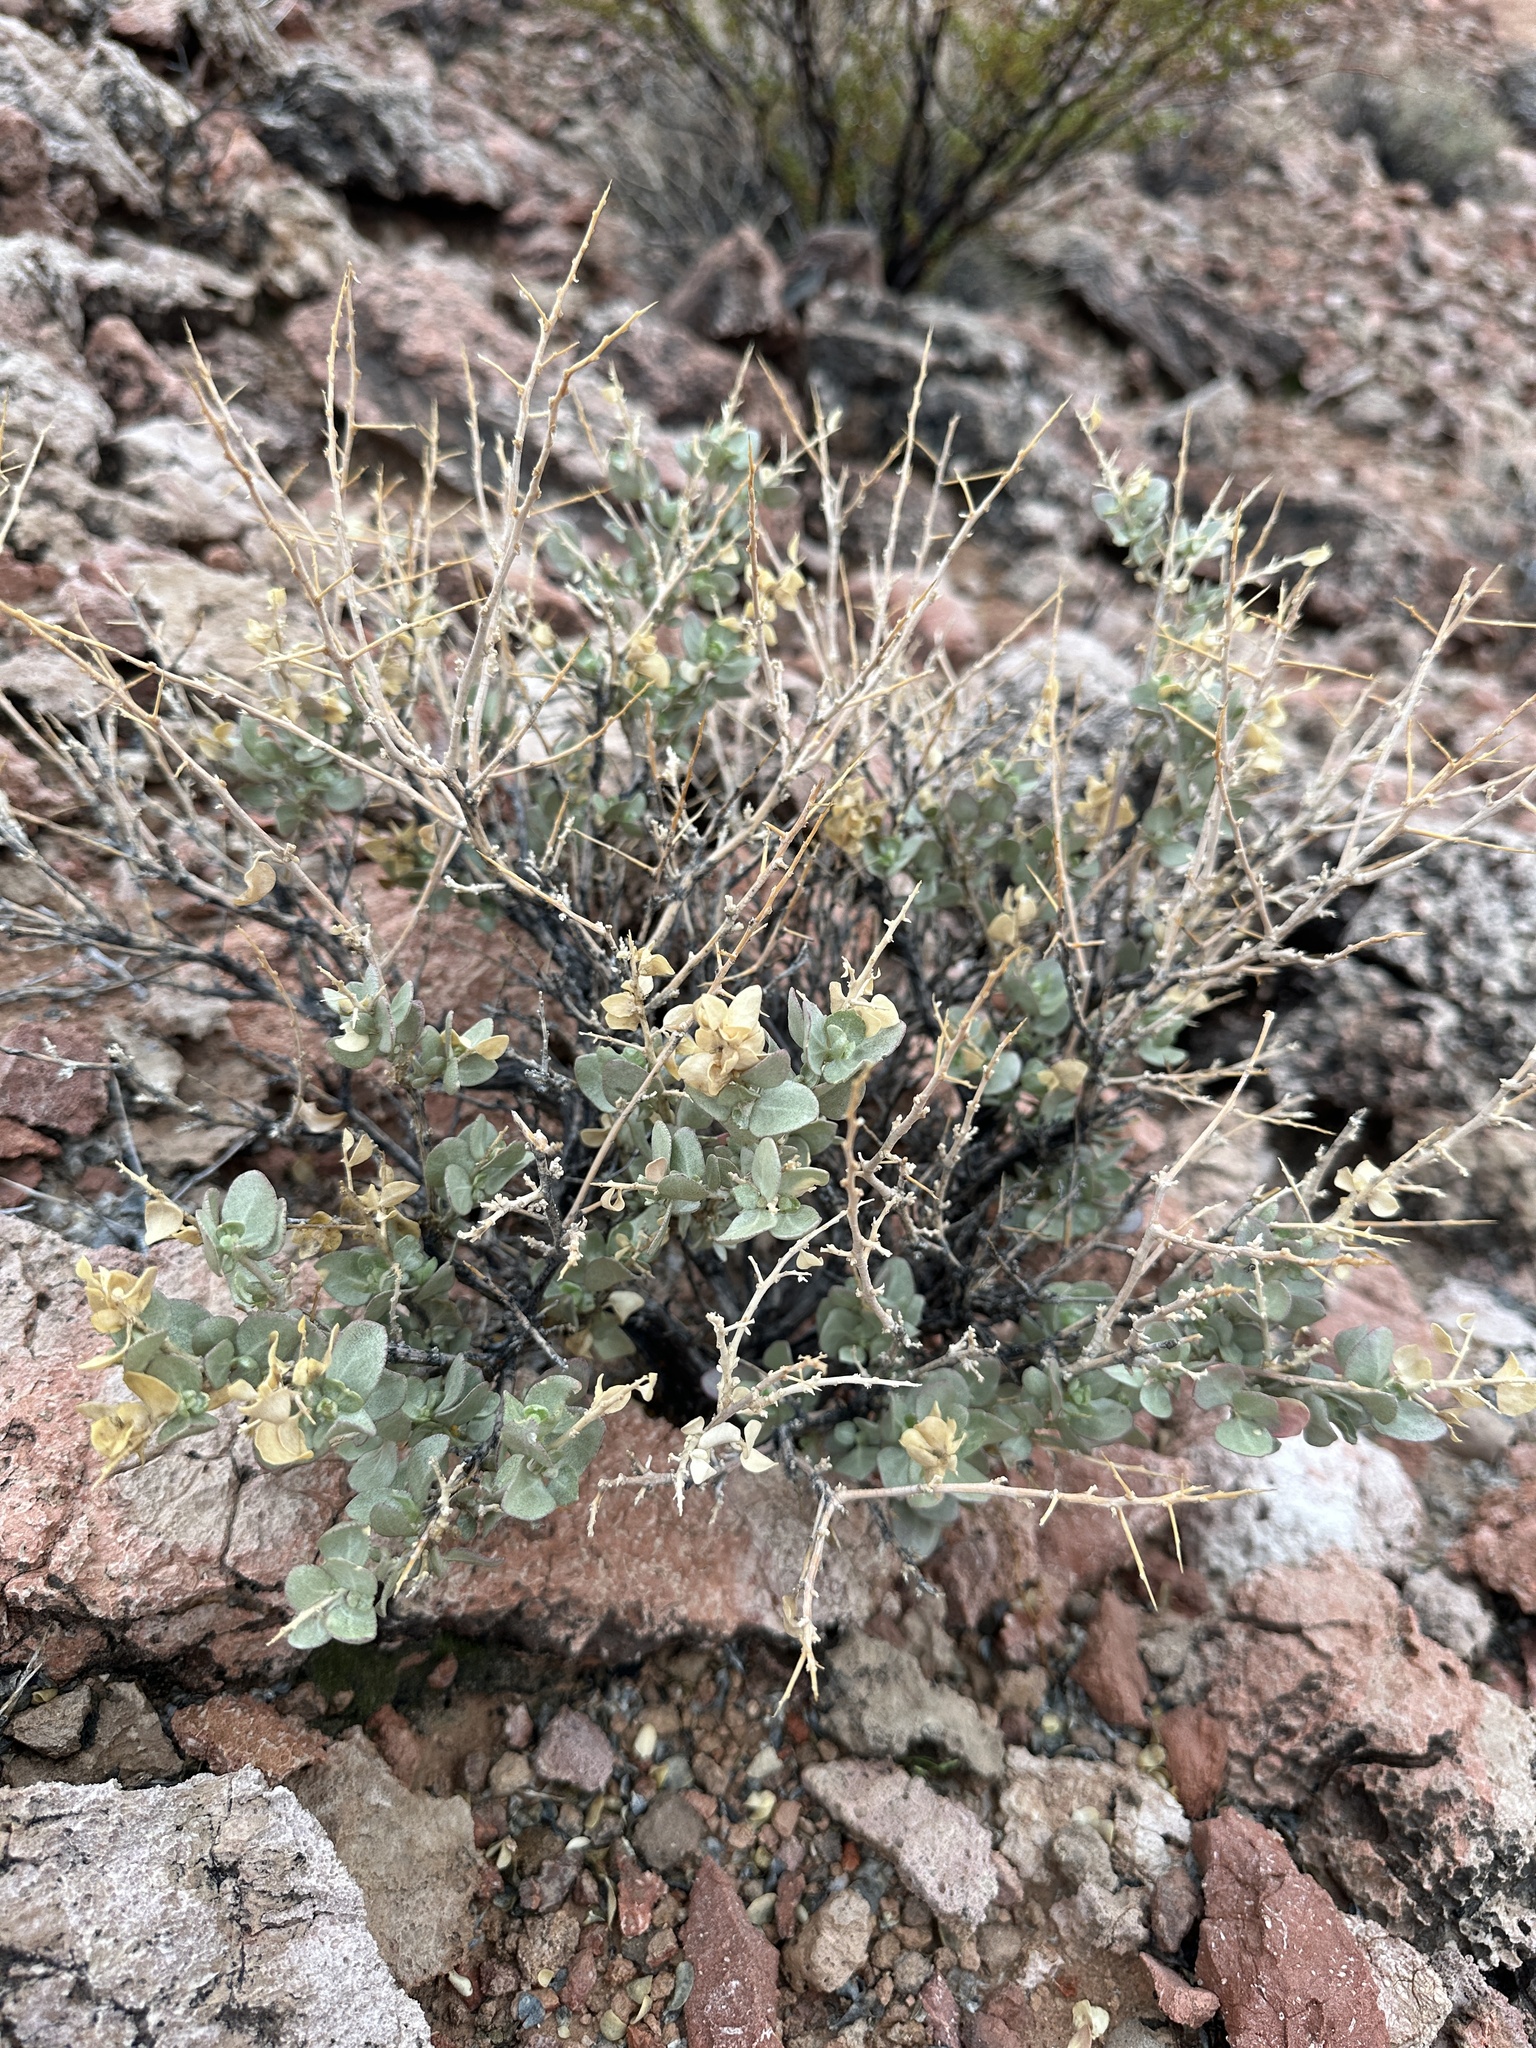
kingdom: Plantae
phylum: Tracheophyta
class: Magnoliopsida
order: Caryophyllales
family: Amaranthaceae
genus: Atriplex
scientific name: Atriplex confertifolia
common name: Shadscale
